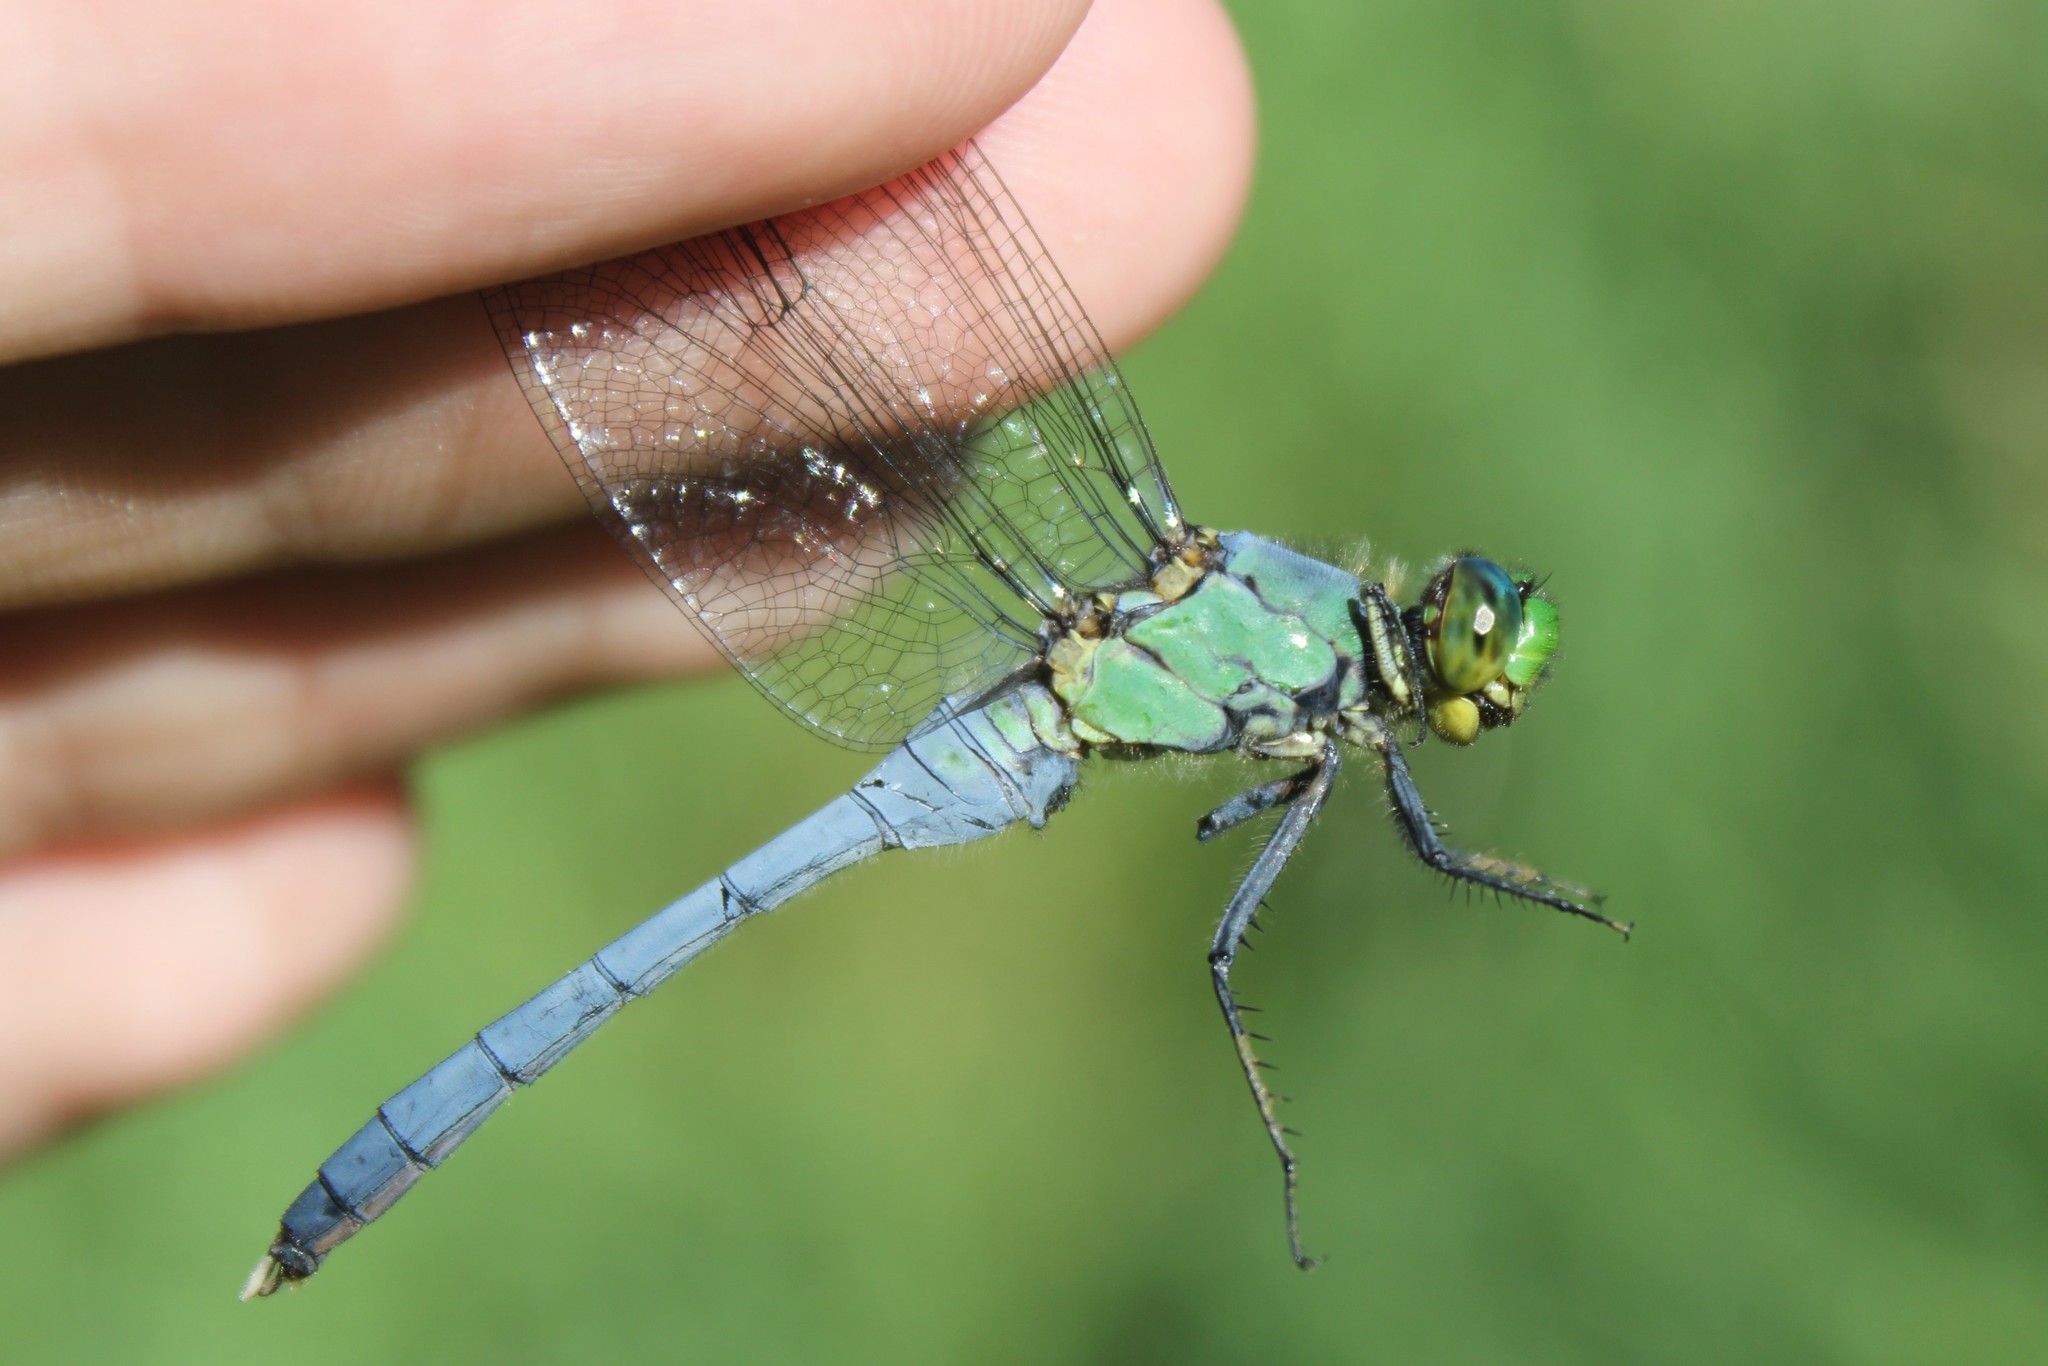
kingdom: Animalia
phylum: Arthropoda
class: Insecta
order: Odonata
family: Libellulidae
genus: Erythemis
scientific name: Erythemis simplicicollis
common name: Eastern pondhawk
